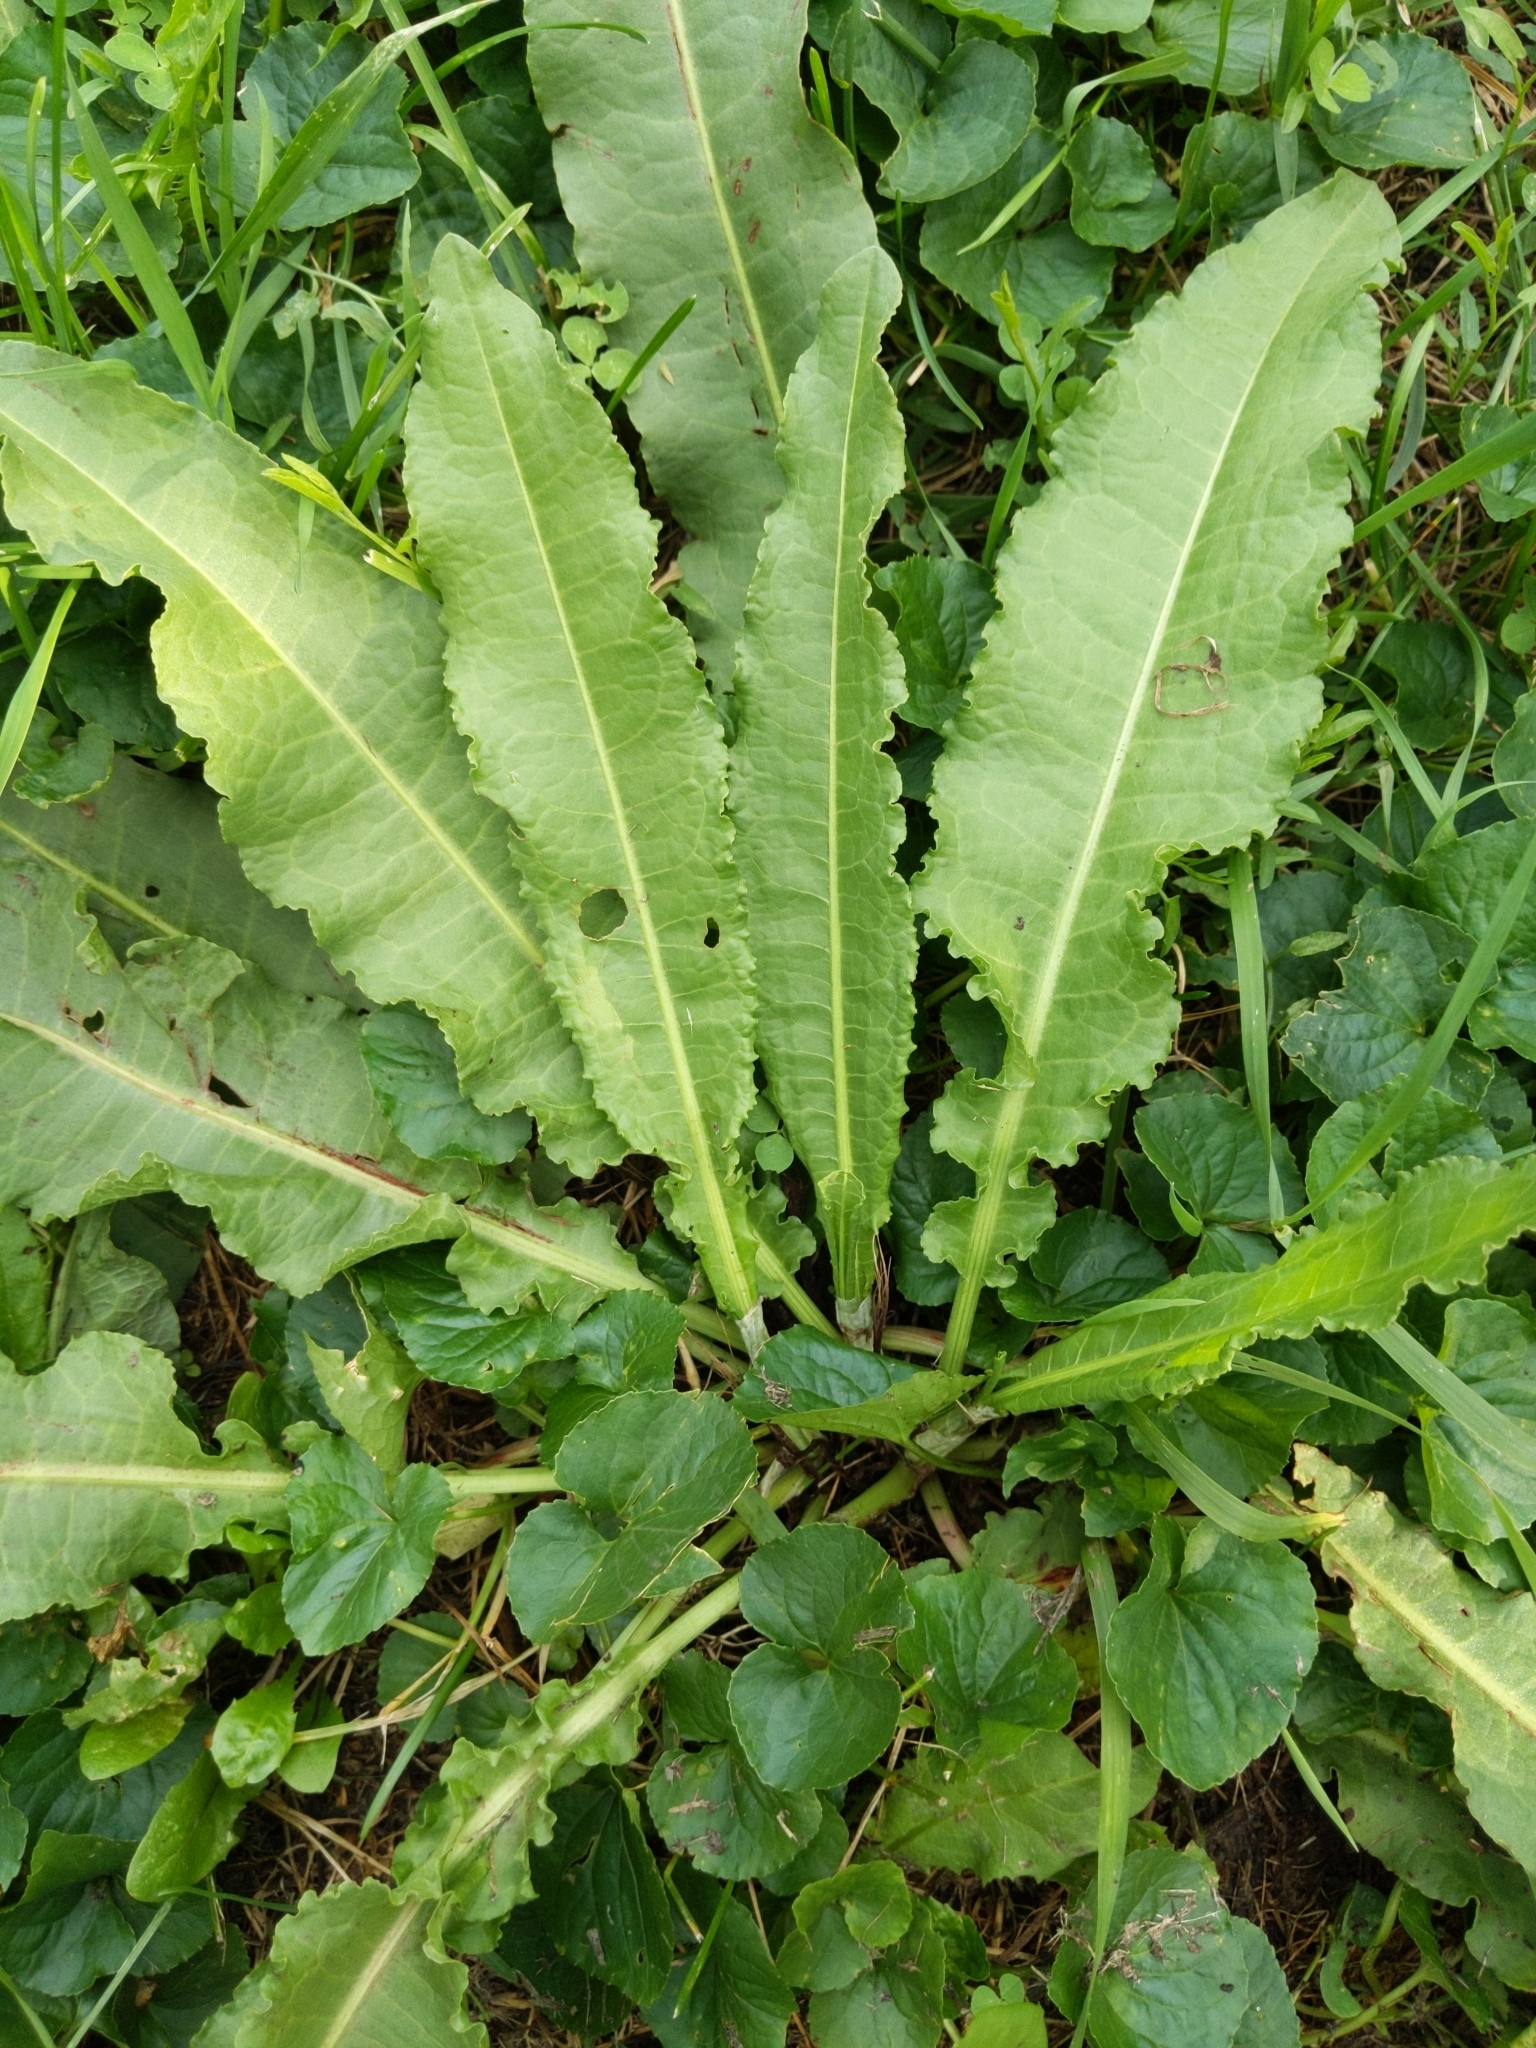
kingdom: Plantae
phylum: Tracheophyta
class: Magnoliopsida
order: Caryophyllales
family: Polygonaceae
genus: Rumex
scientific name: Rumex crispus
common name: Curled dock
